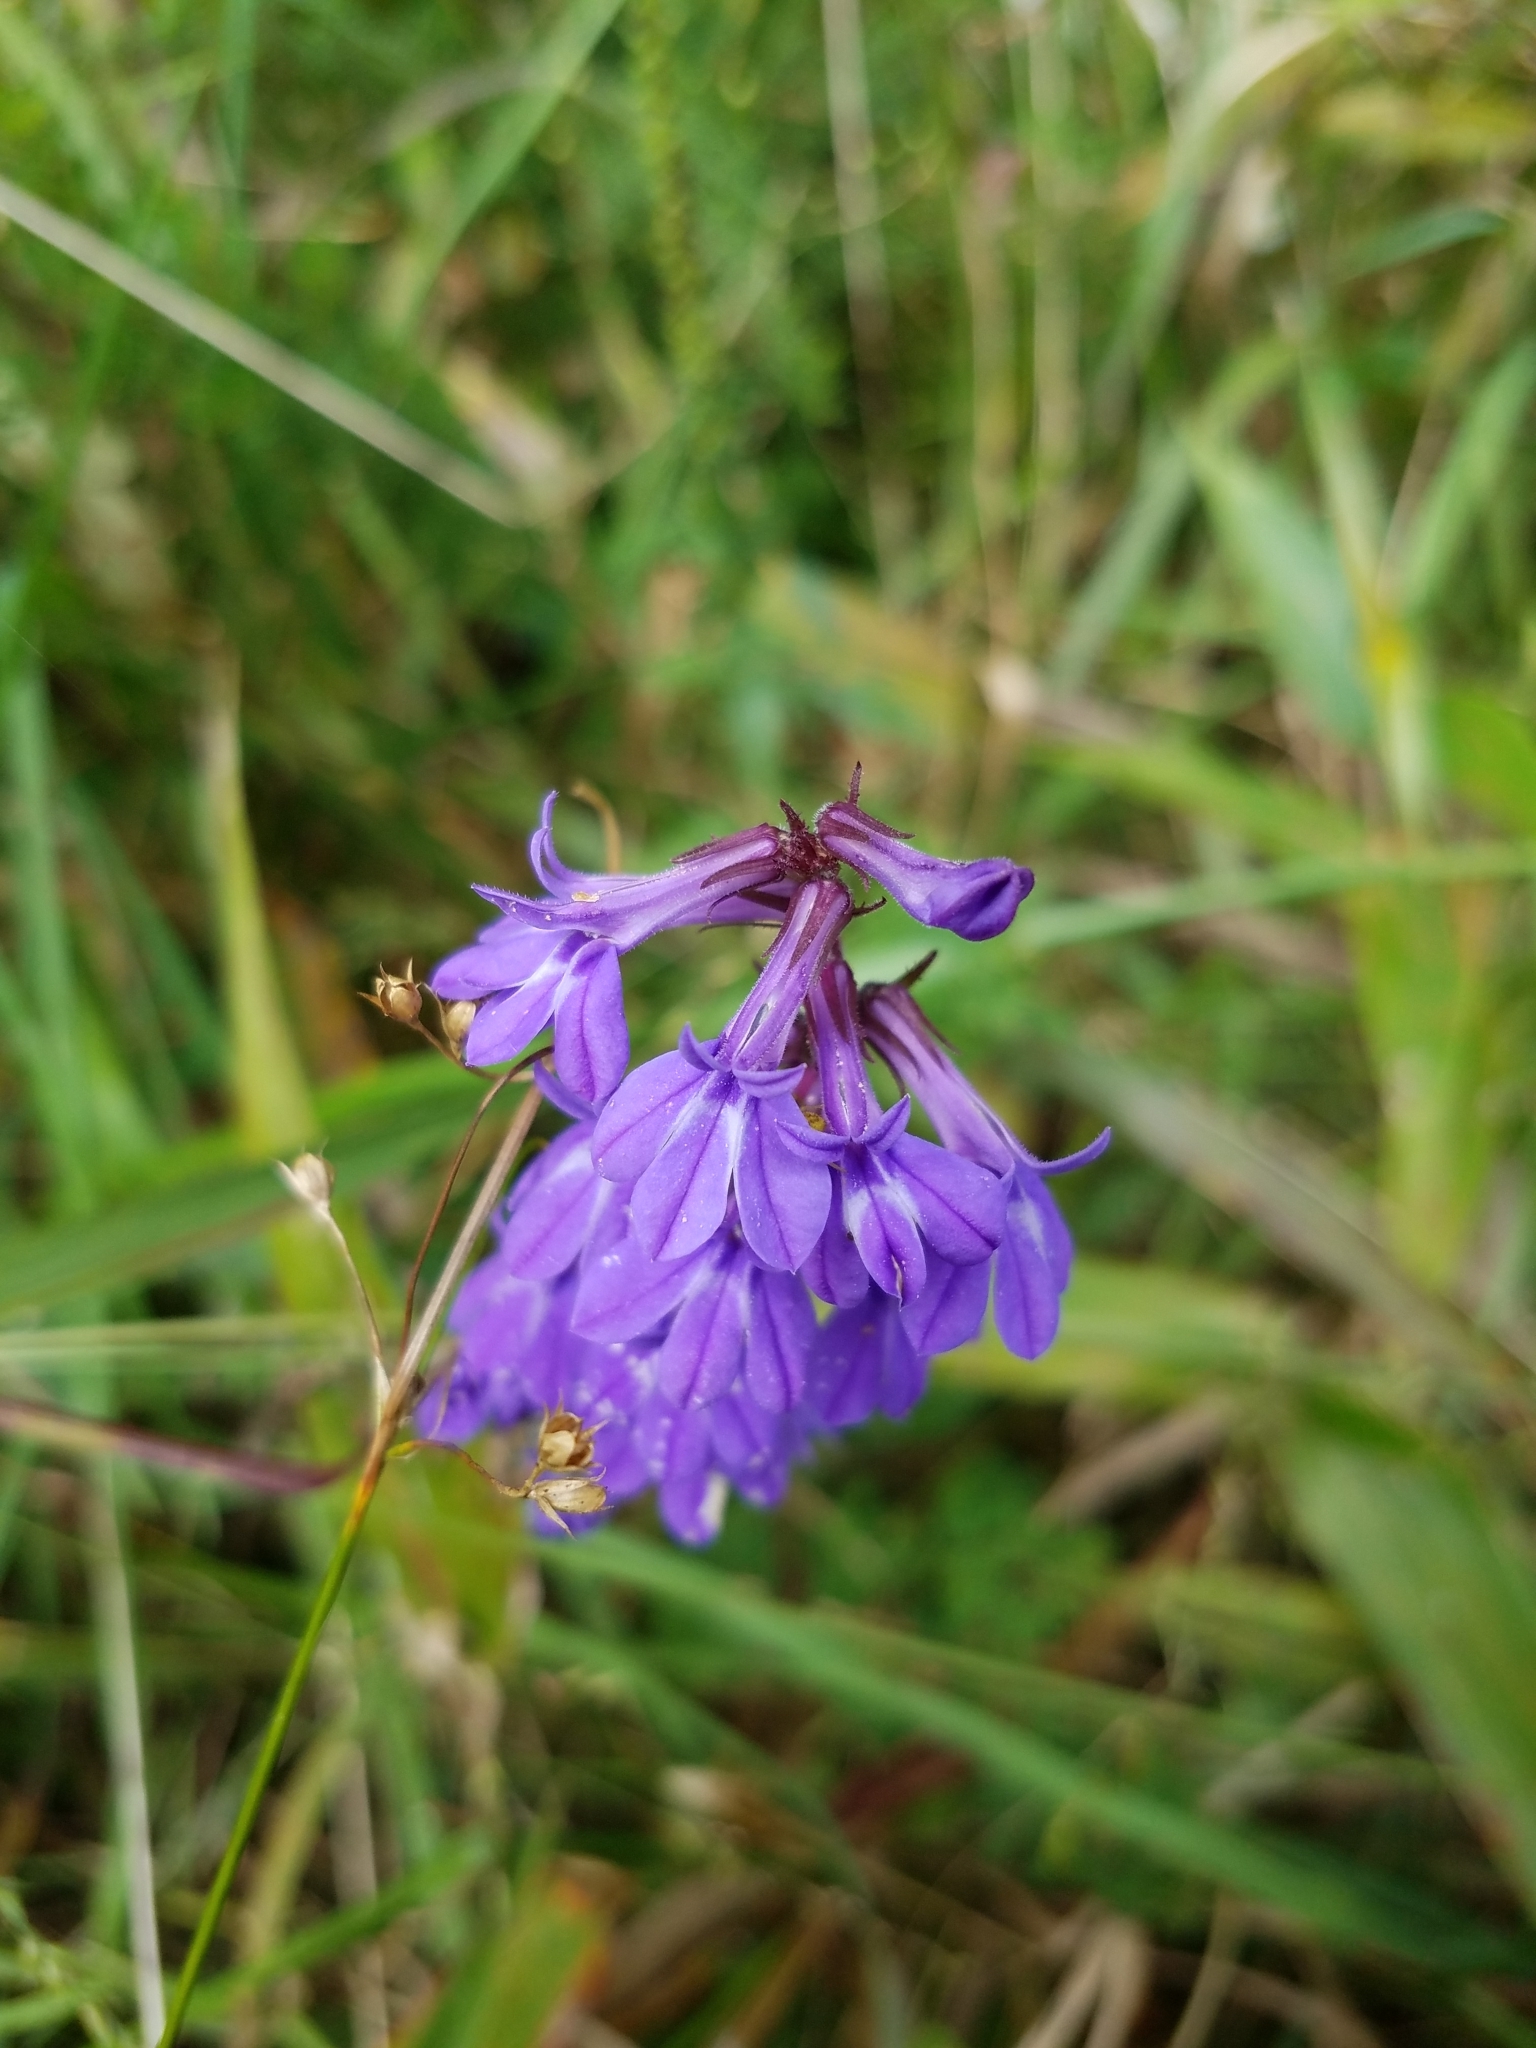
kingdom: Plantae
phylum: Tracheophyta
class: Magnoliopsida
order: Asterales
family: Campanulaceae
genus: Lobelia
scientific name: Lobelia puberula
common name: Purple dewdrop
